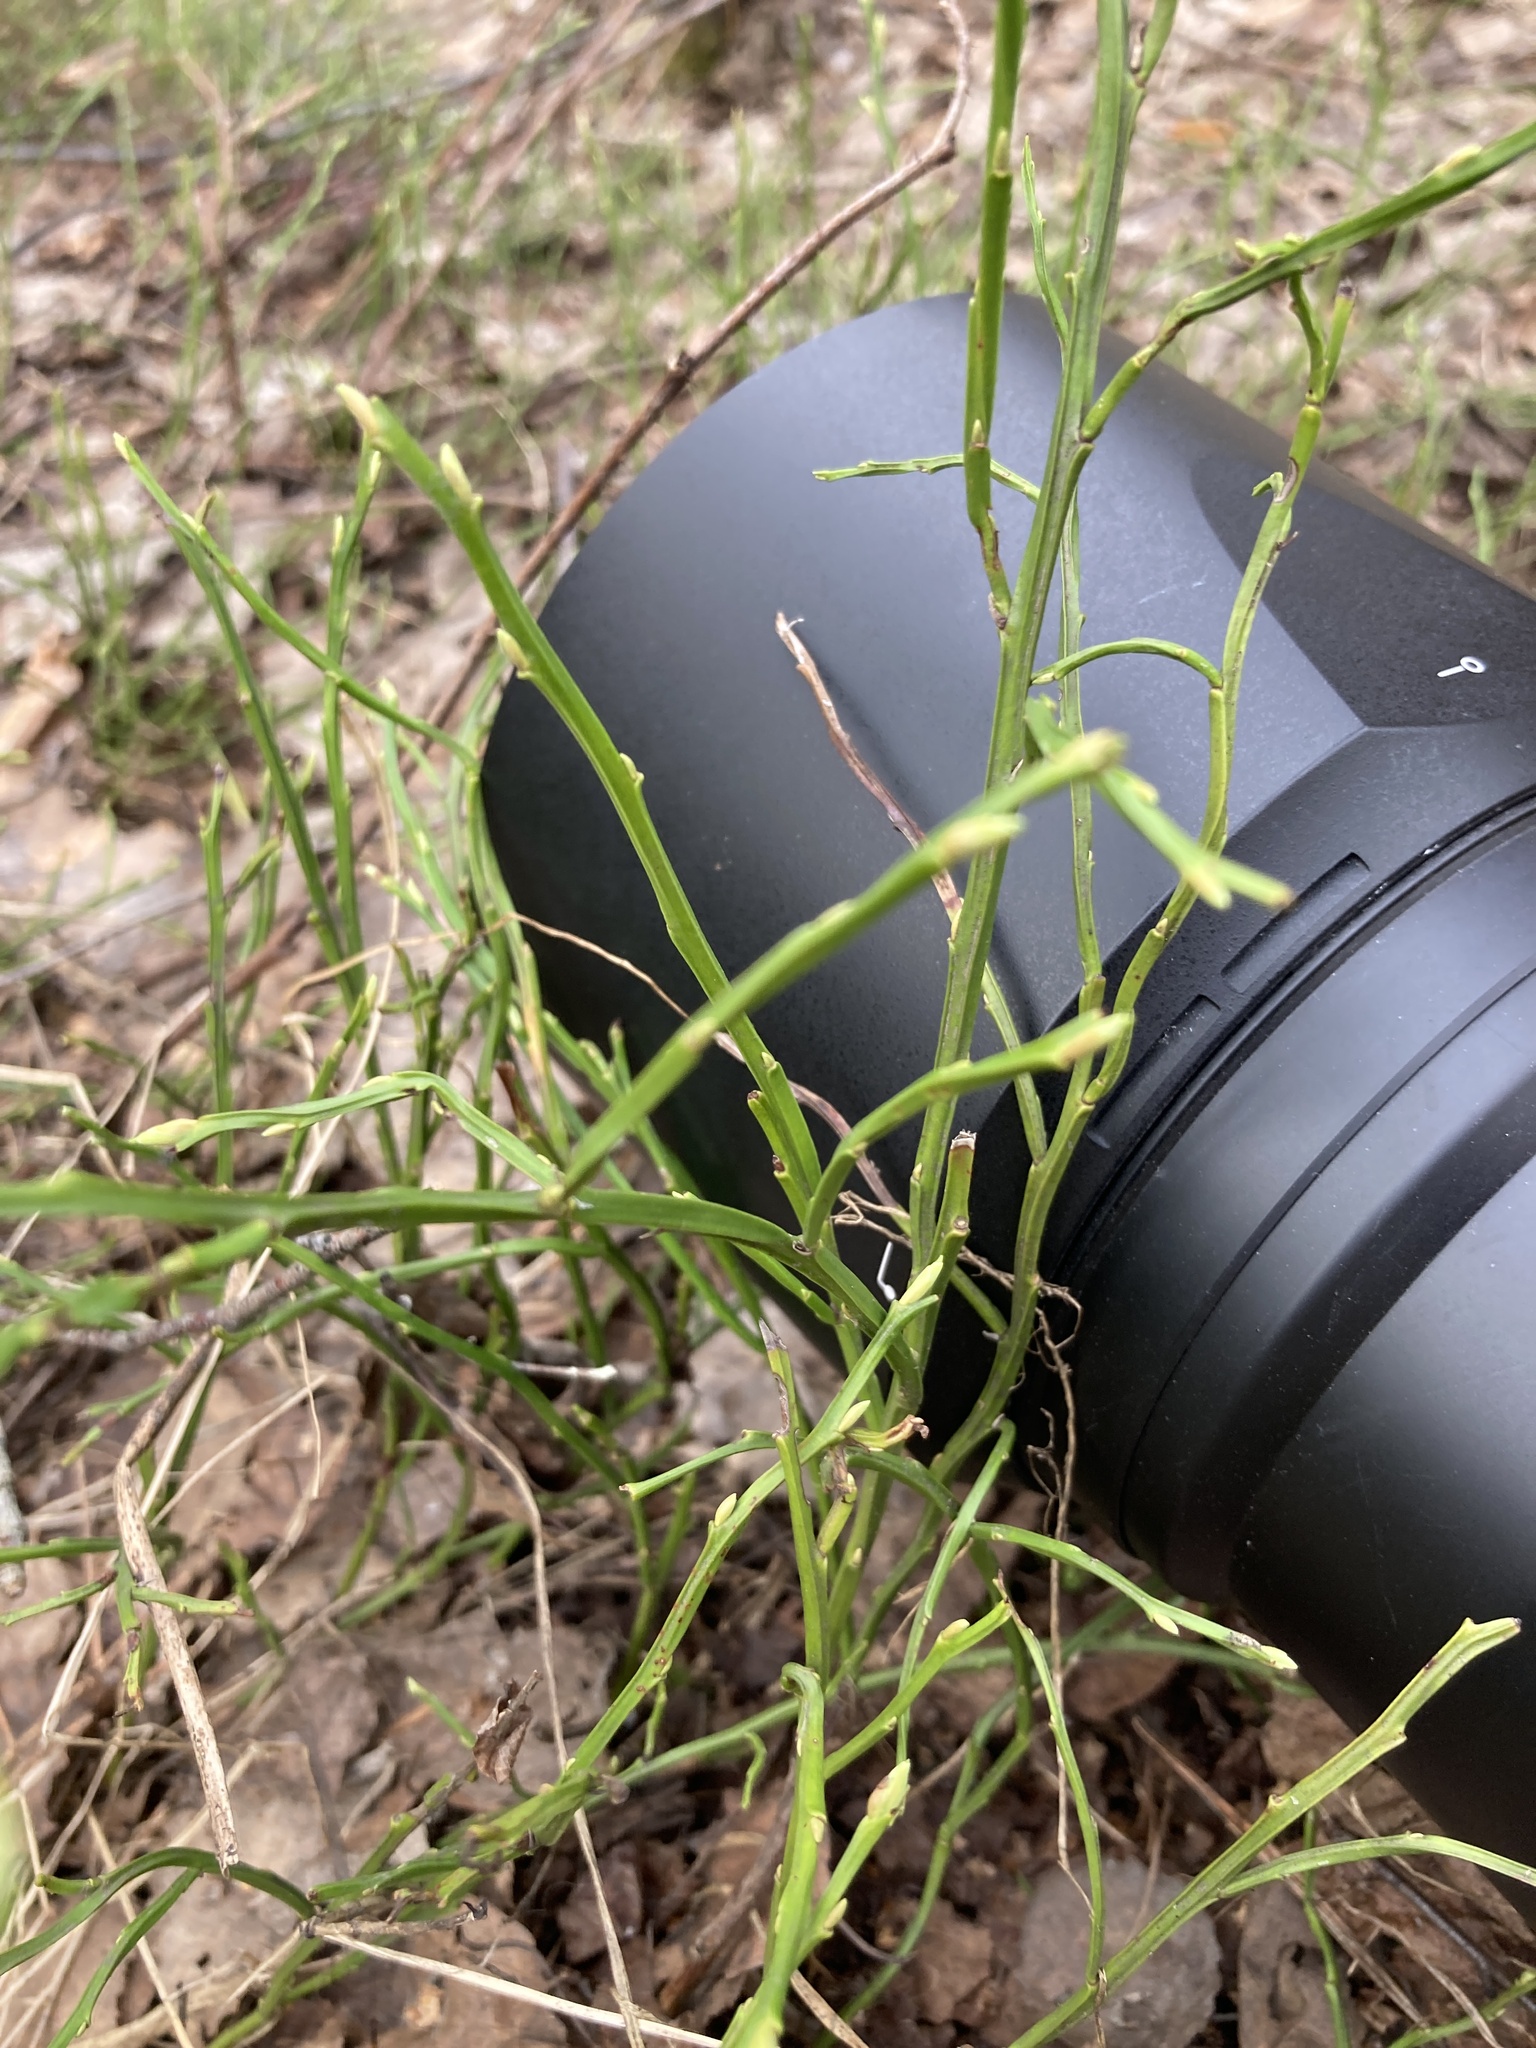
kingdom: Plantae
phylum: Tracheophyta
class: Magnoliopsida
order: Ericales
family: Ericaceae
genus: Vaccinium
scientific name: Vaccinium myrtillus
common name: Bilberry
